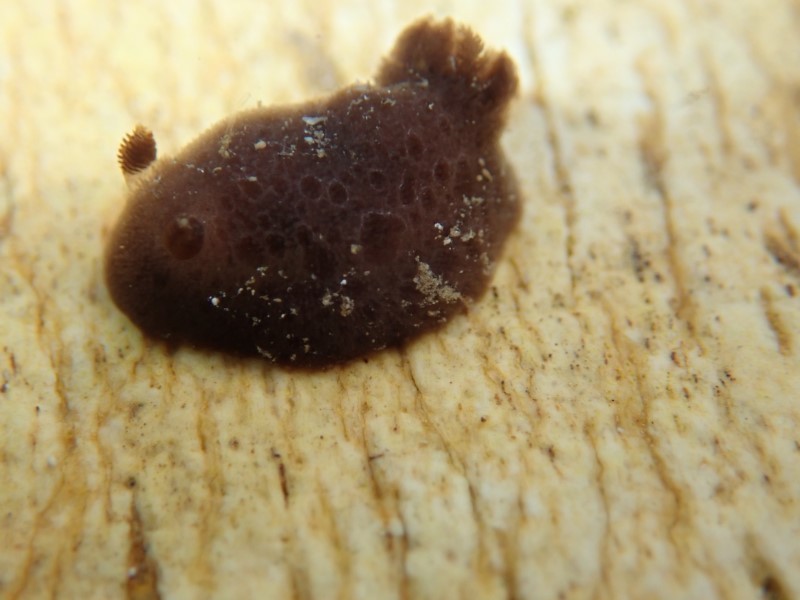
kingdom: Animalia
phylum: Mollusca
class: Gastropoda
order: Nudibranchia
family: Discodorididae
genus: Jorunna
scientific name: Jorunna ramicola
